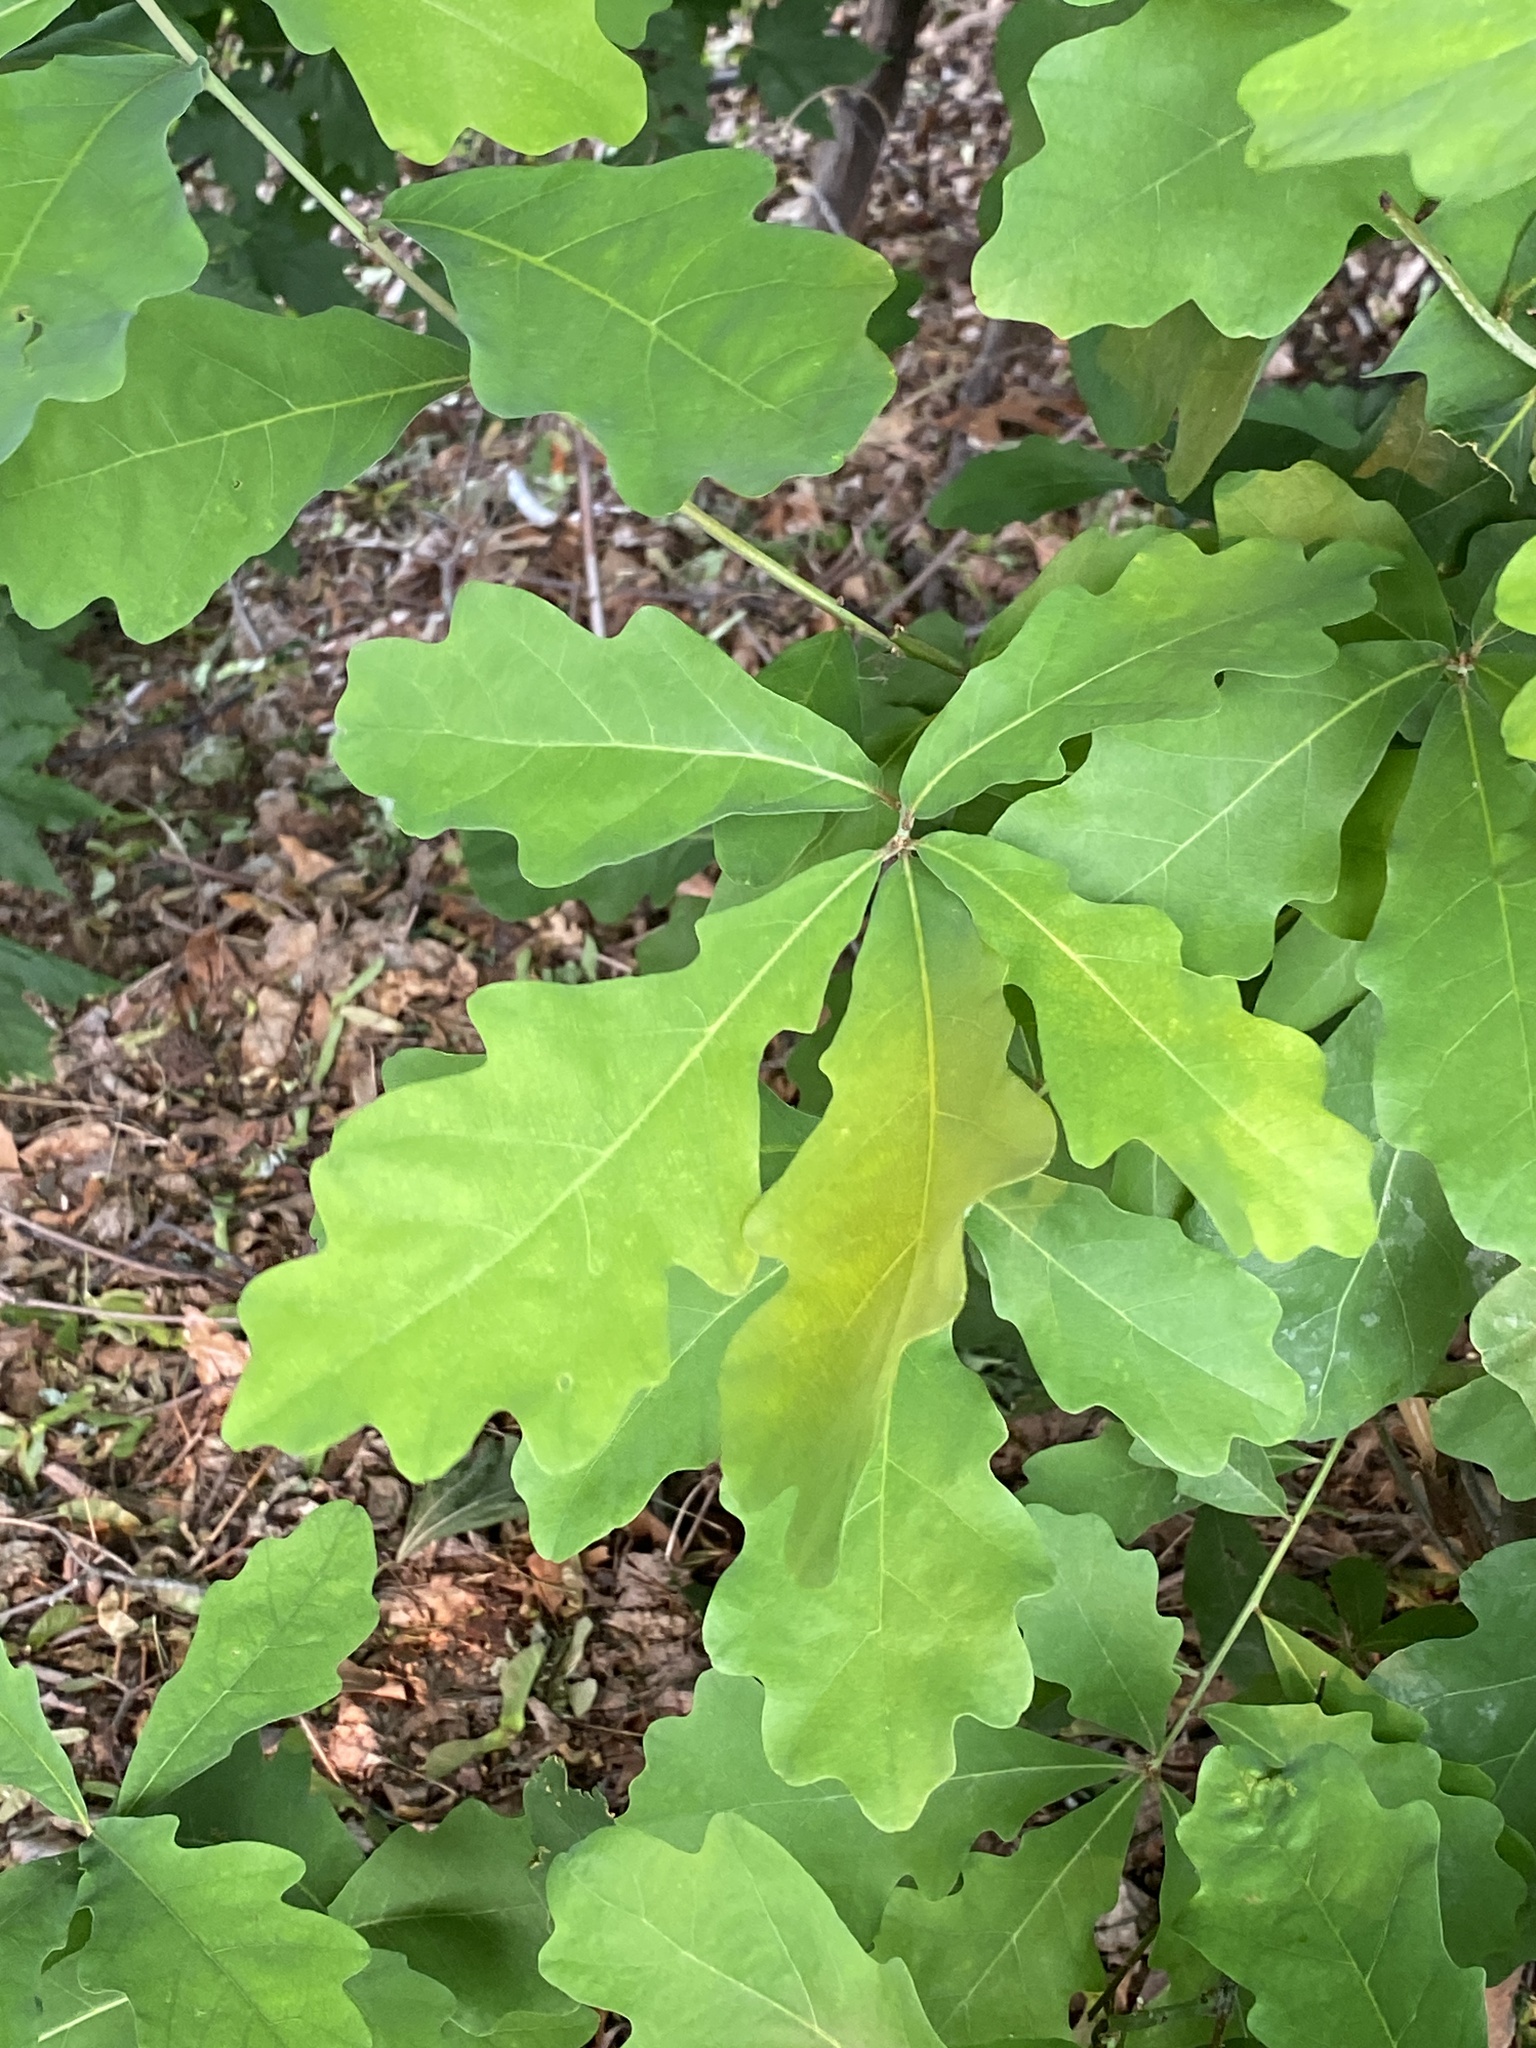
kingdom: Plantae
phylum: Tracheophyta
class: Magnoliopsida
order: Fagales
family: Fagaceae
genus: Quercus
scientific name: Quercus alba
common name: White oak
